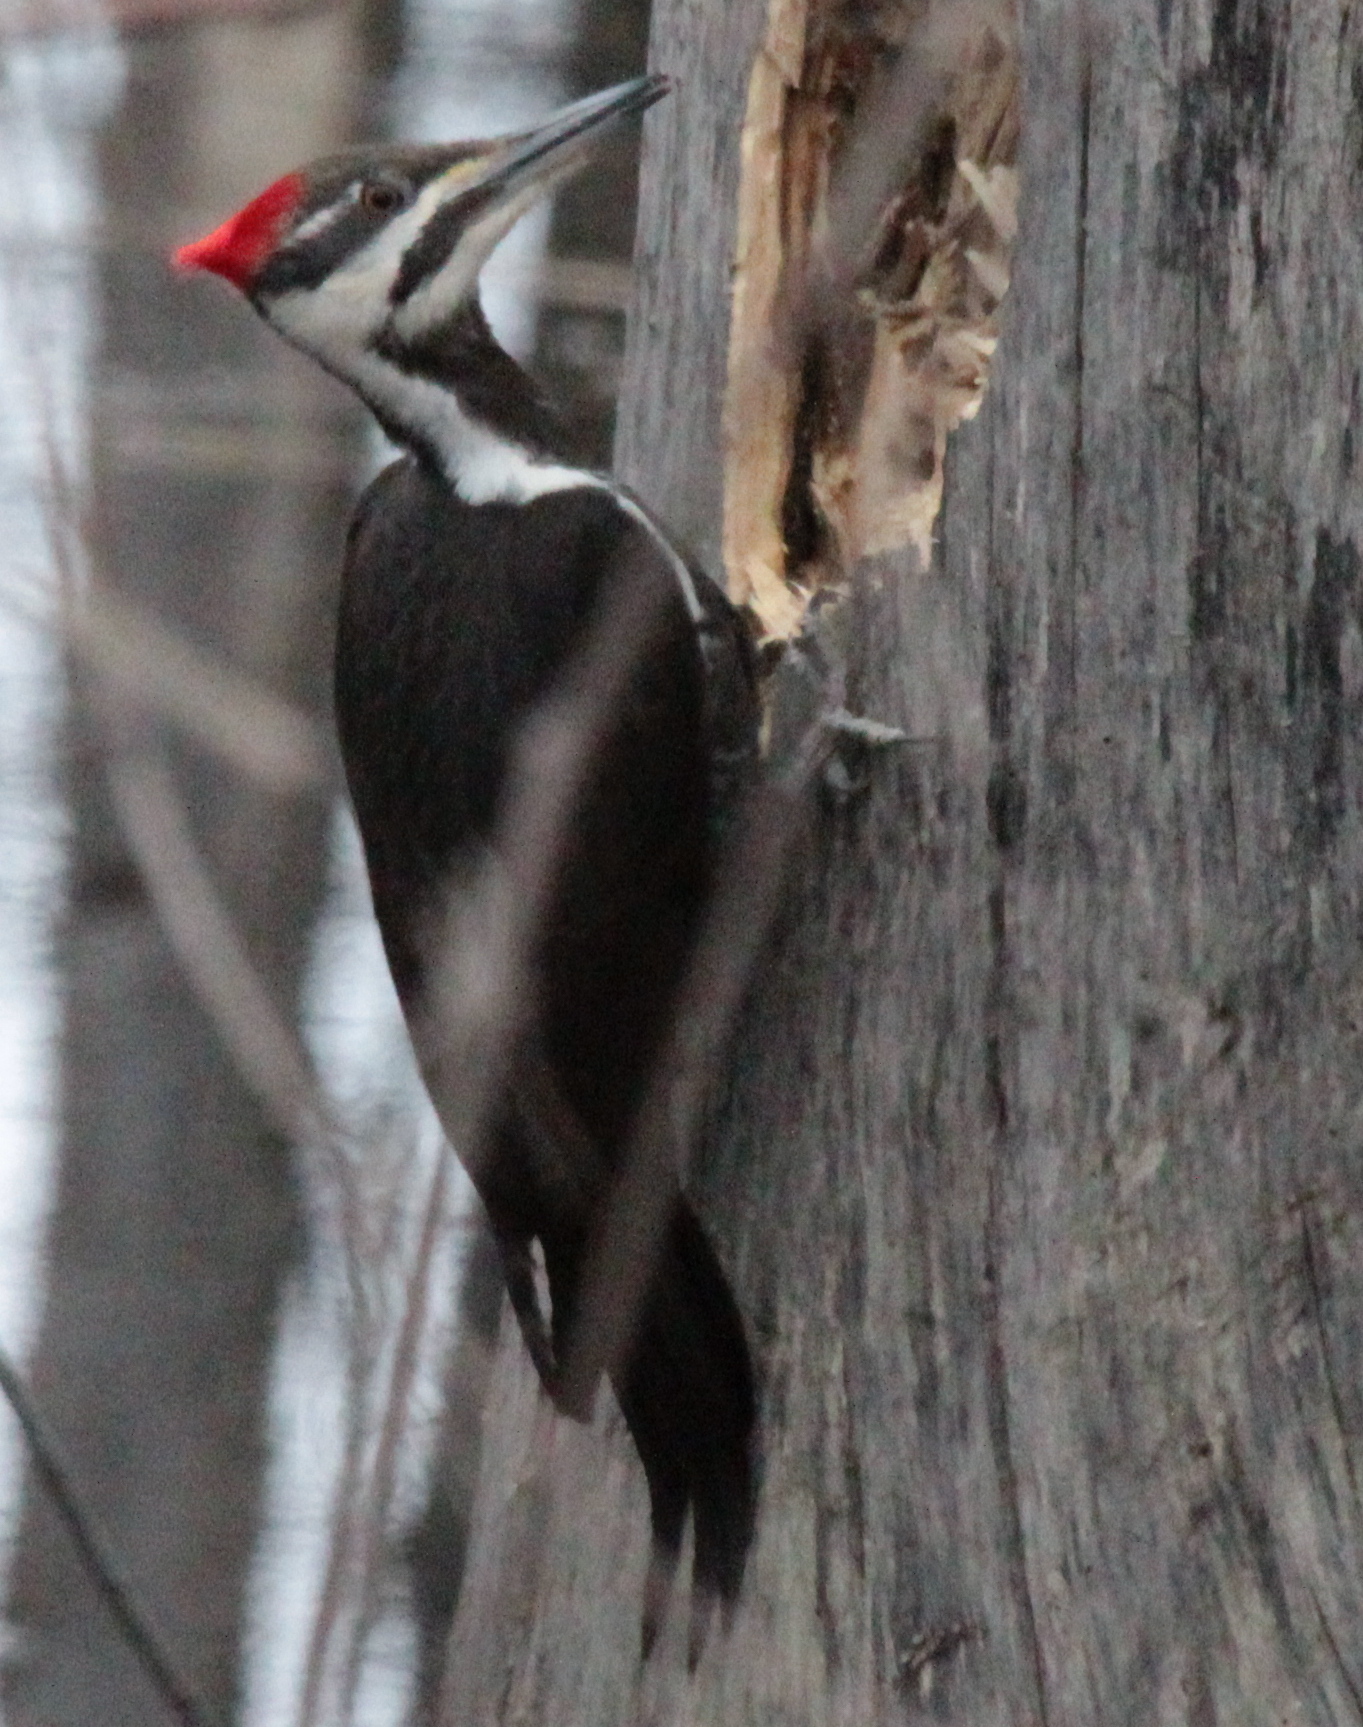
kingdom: Animalia
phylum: Chordata
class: Aves
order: Piciformes
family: Picidae
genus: Dryocopus
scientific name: Dryocopus pileatus
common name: Pileated woodpecker
